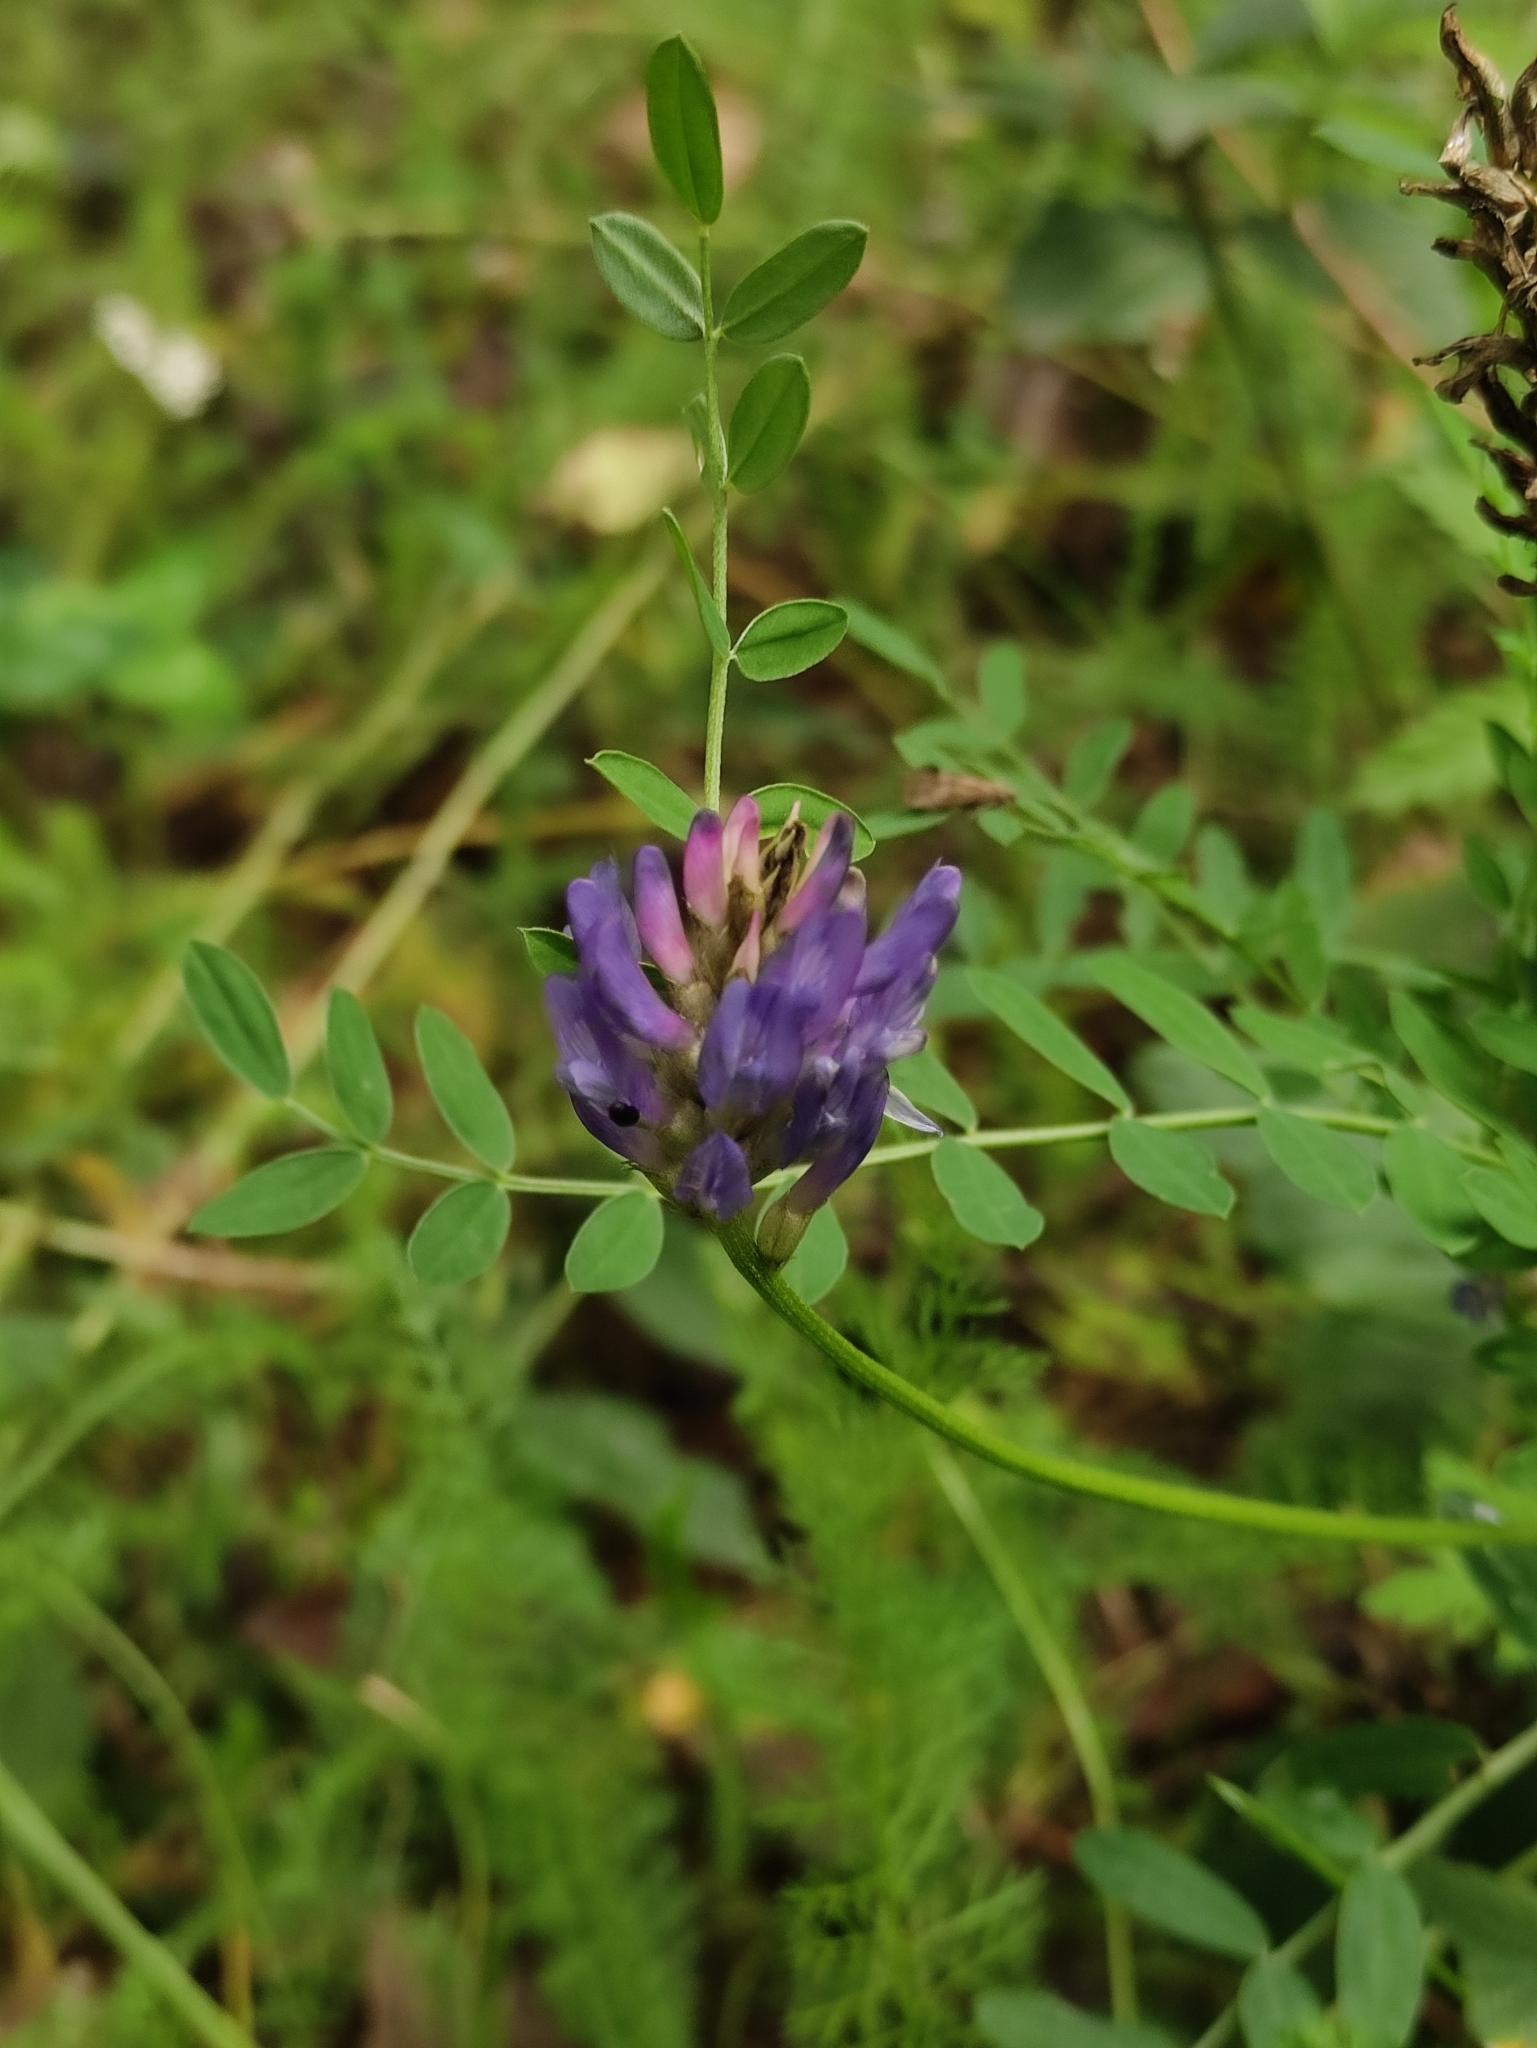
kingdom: Plantae
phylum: Tracheophyta
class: Magnoliopsida
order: Fabales
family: Fabaceae
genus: Astragalus
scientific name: Astragalus laxmannii
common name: Laxmann's milk-vetch
